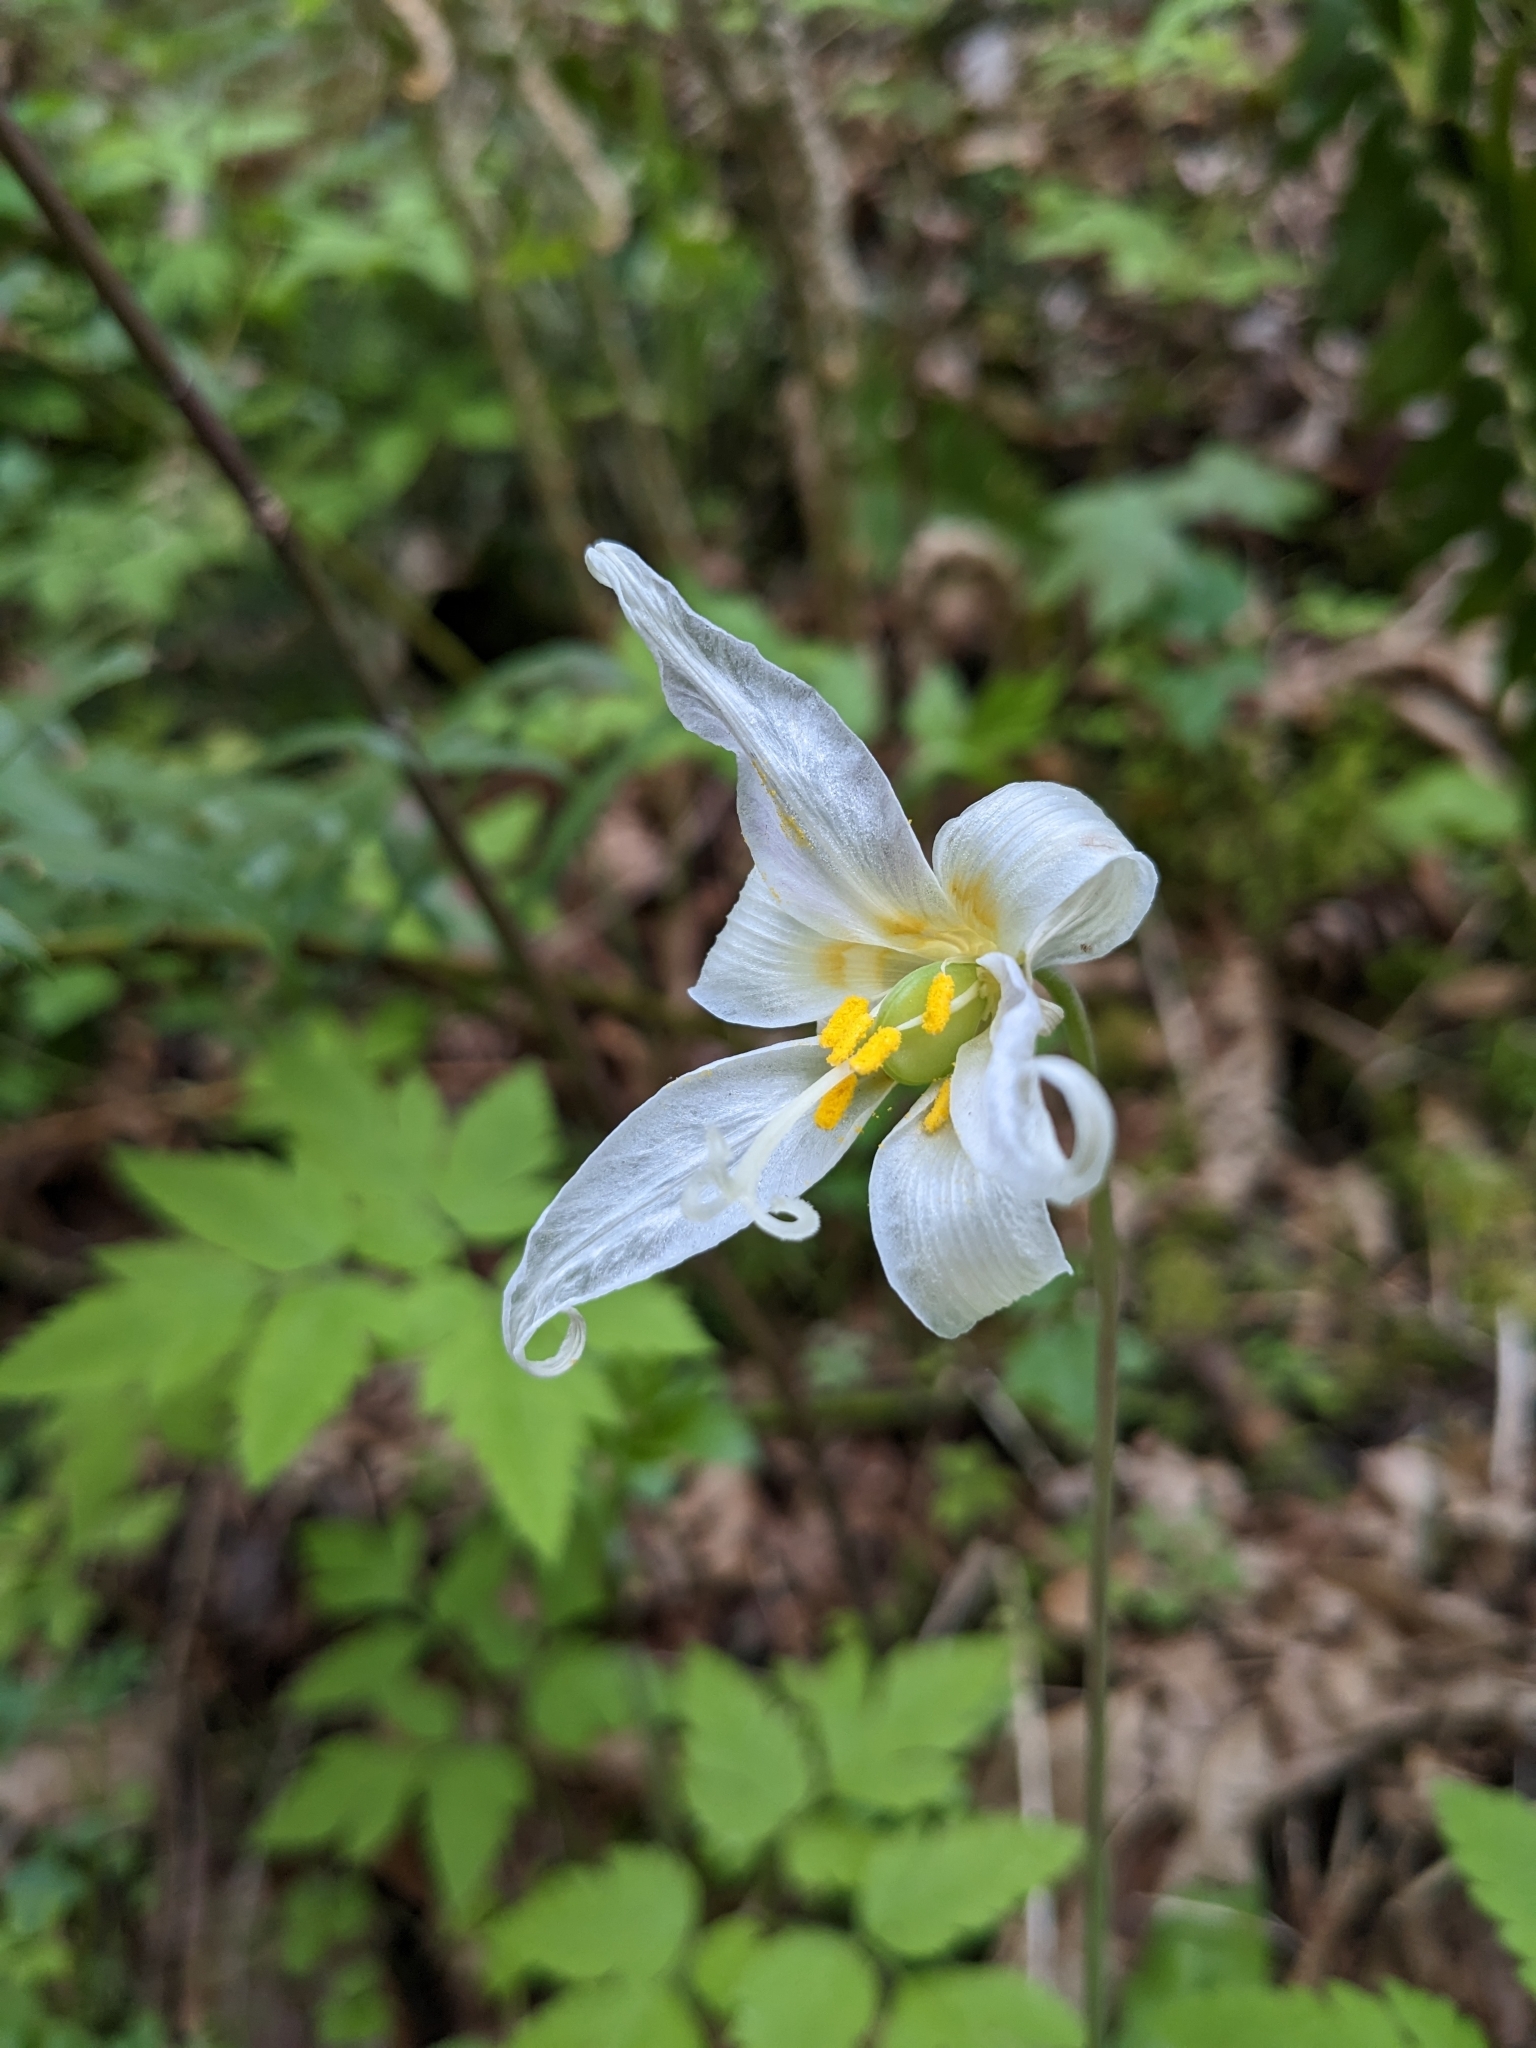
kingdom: Plantae
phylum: Tracheophyta
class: Liliopsida
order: Liliales
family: Liliaceae
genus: Erythronium
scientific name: Erythronium oregonum
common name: Giant adder's-tongue
